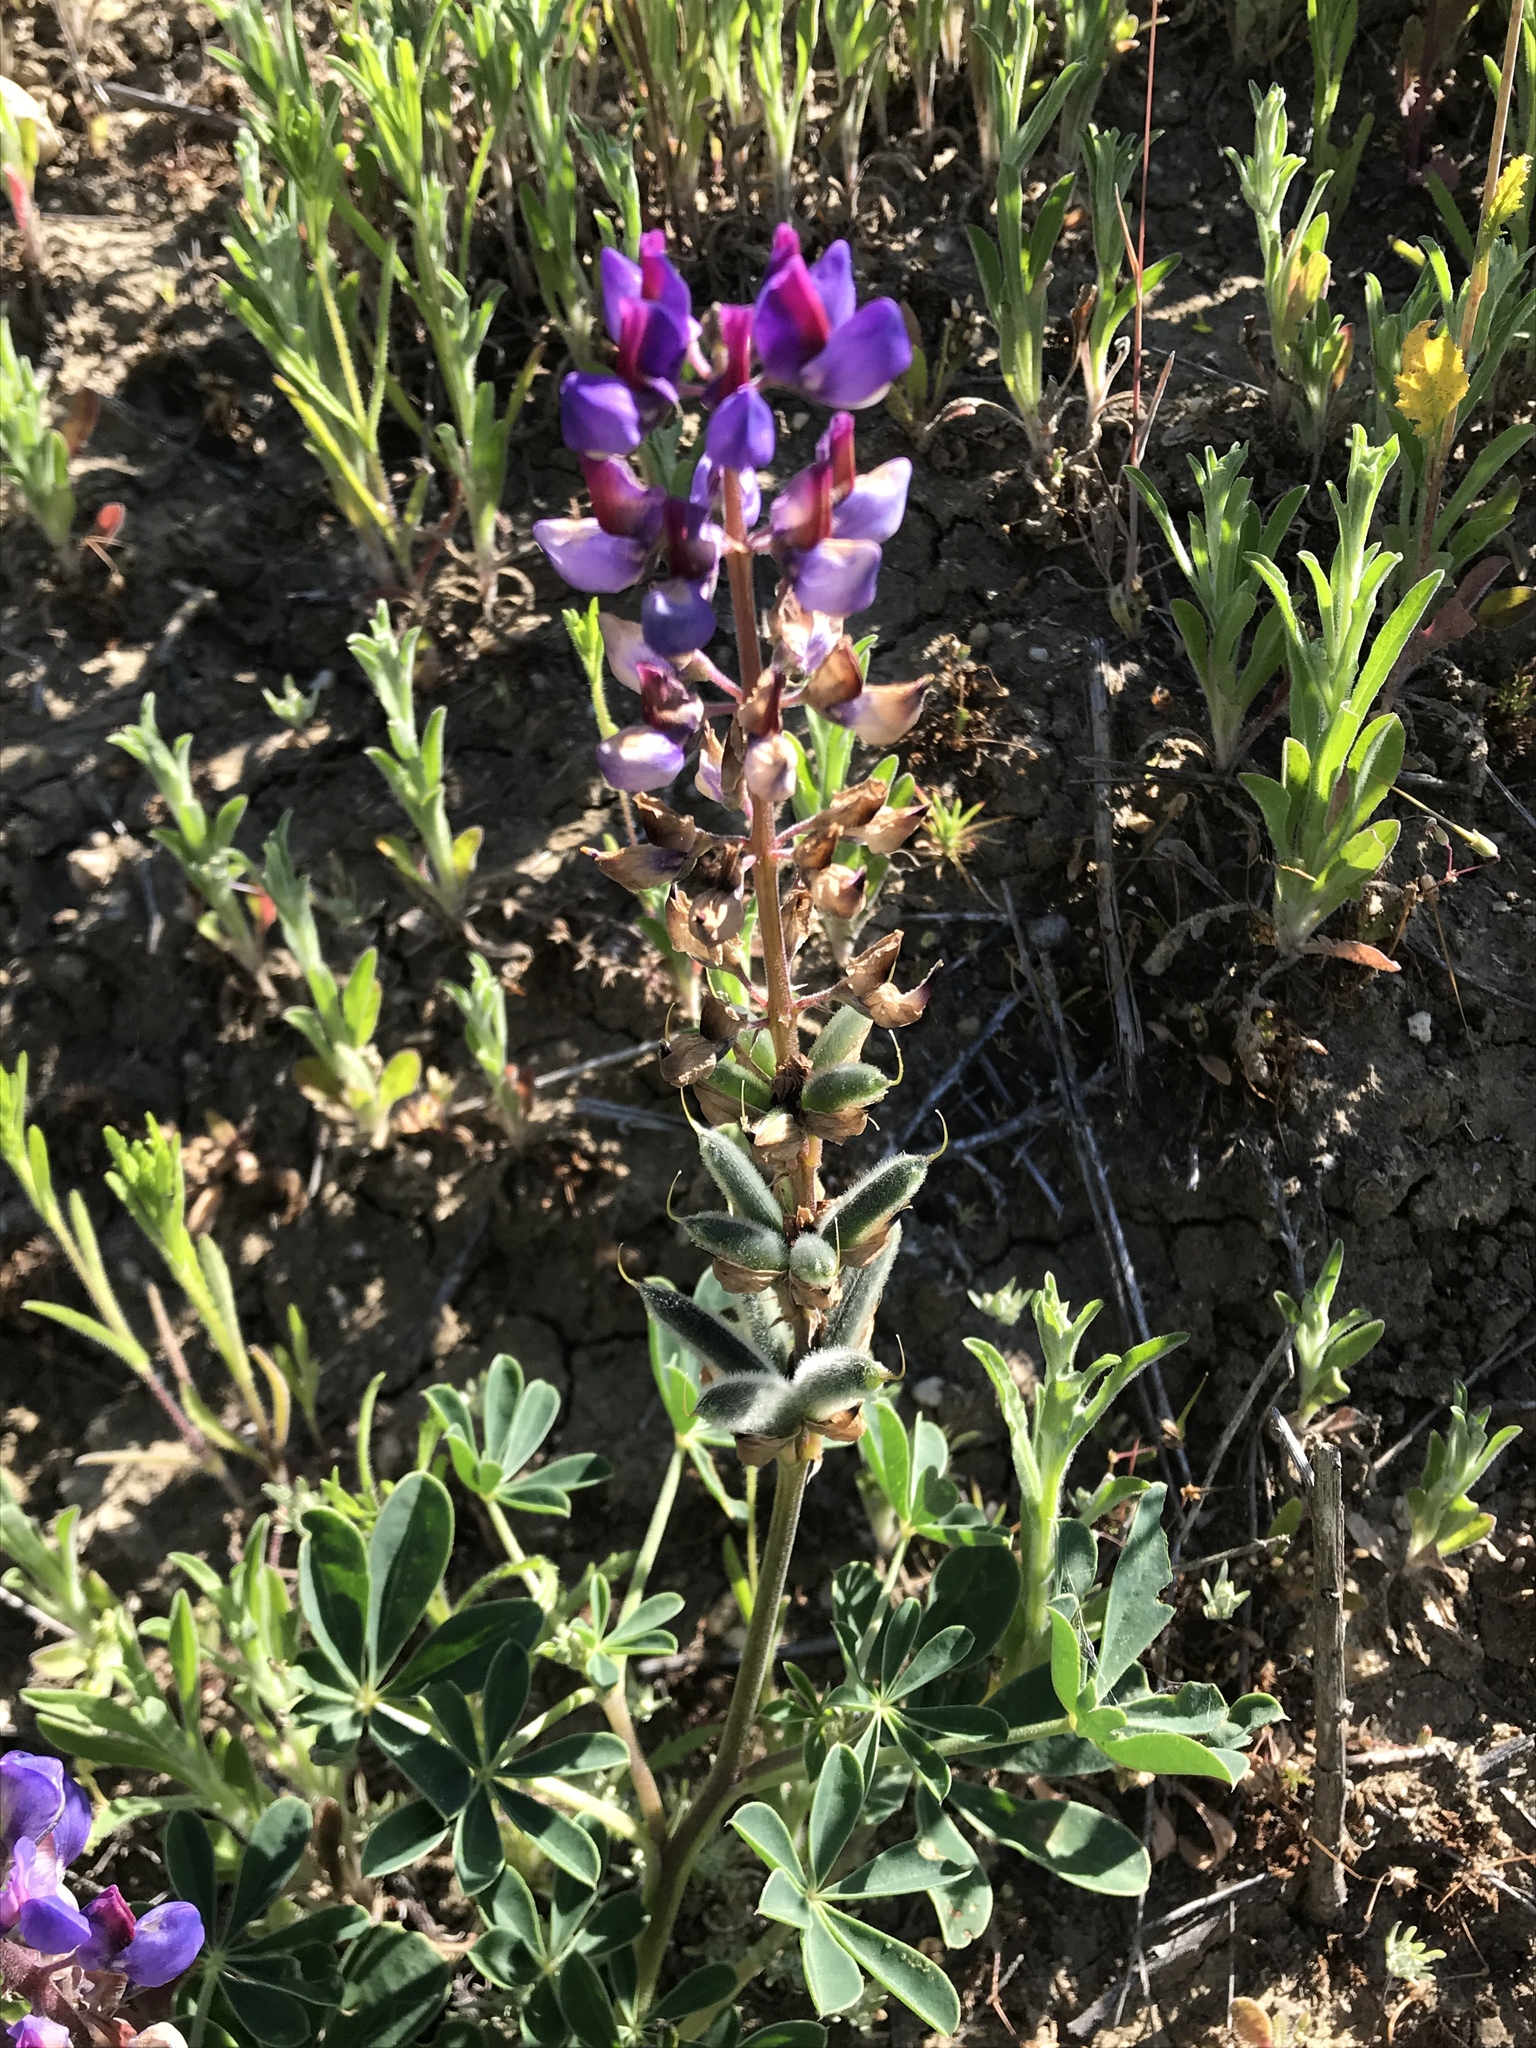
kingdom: Plantae
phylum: Tracheophyta
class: Magnoliopsida
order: Fabales
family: Fabaceae
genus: Lupinus
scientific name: Lupinus succulentus
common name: Arroyo lupine
